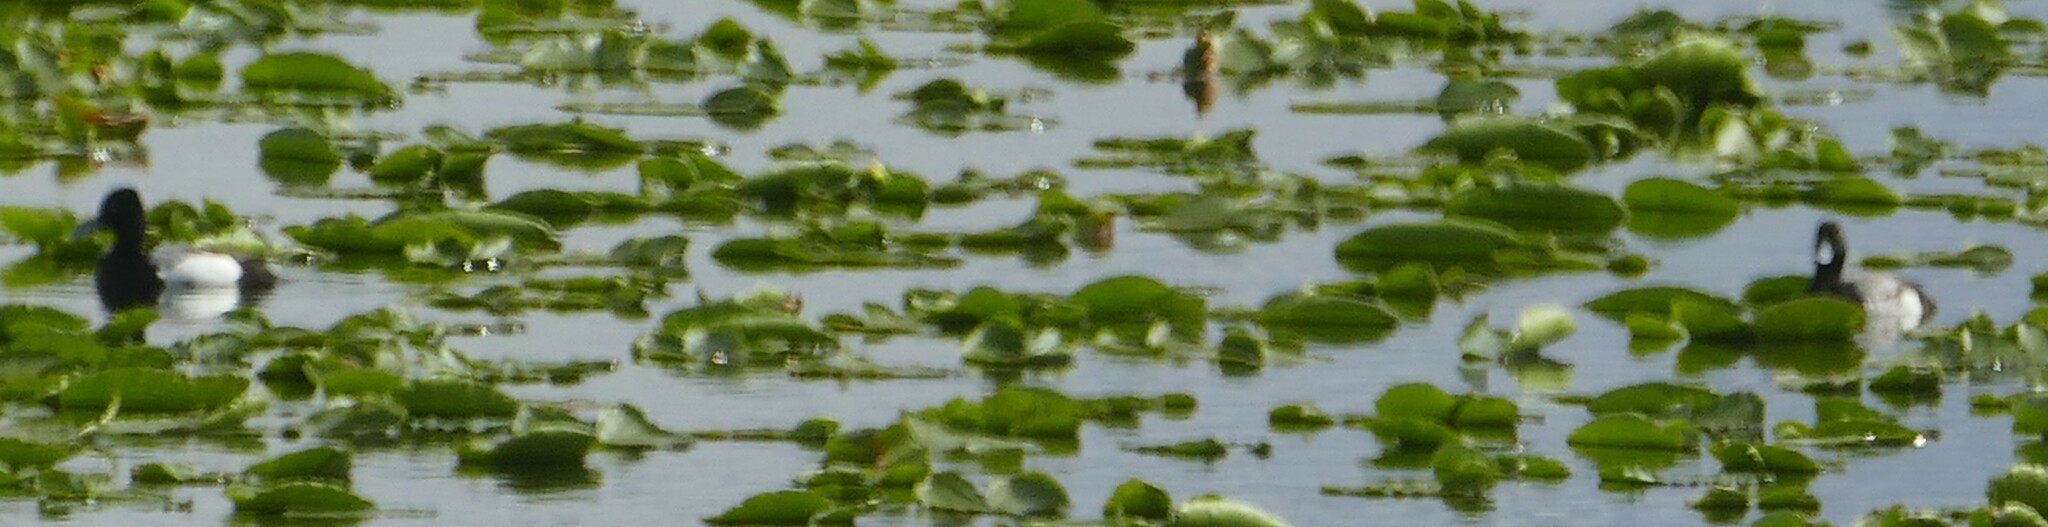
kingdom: Animalia
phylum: Chordata
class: Aves
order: Anseriformes
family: Anatidae
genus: Aythya
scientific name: Aythya affinis
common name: Lesser scaup
